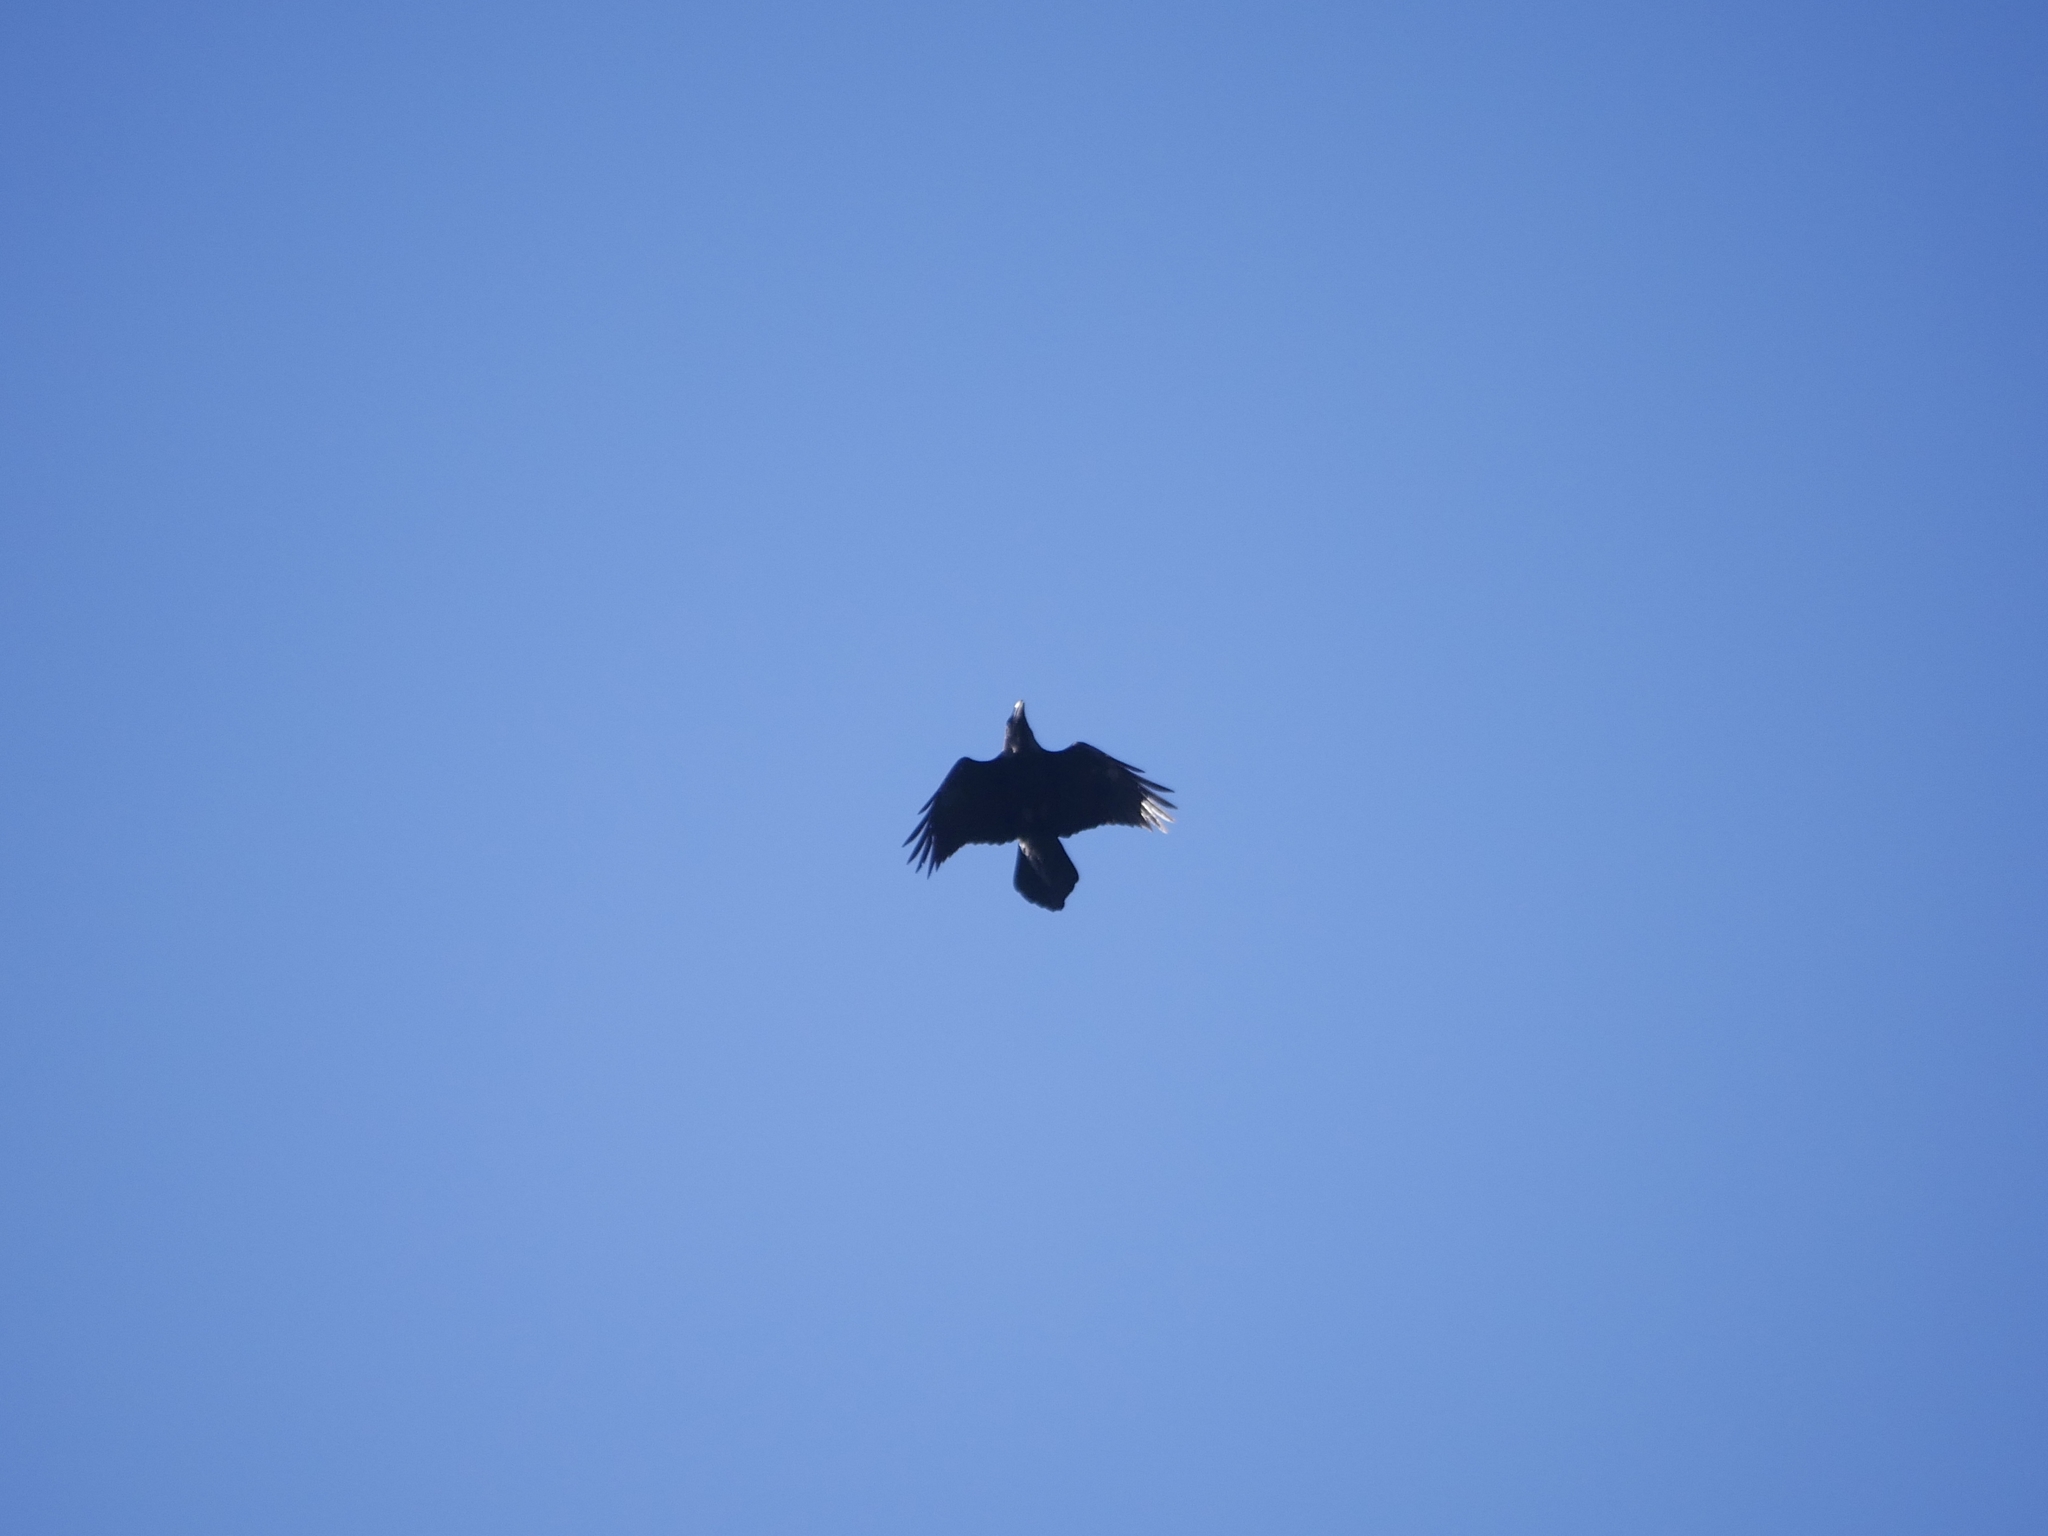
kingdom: Animalia
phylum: Chordata
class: Aves
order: Passeriformes
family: Corvidae
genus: Corvus
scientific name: Corvus corax
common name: Common raven
